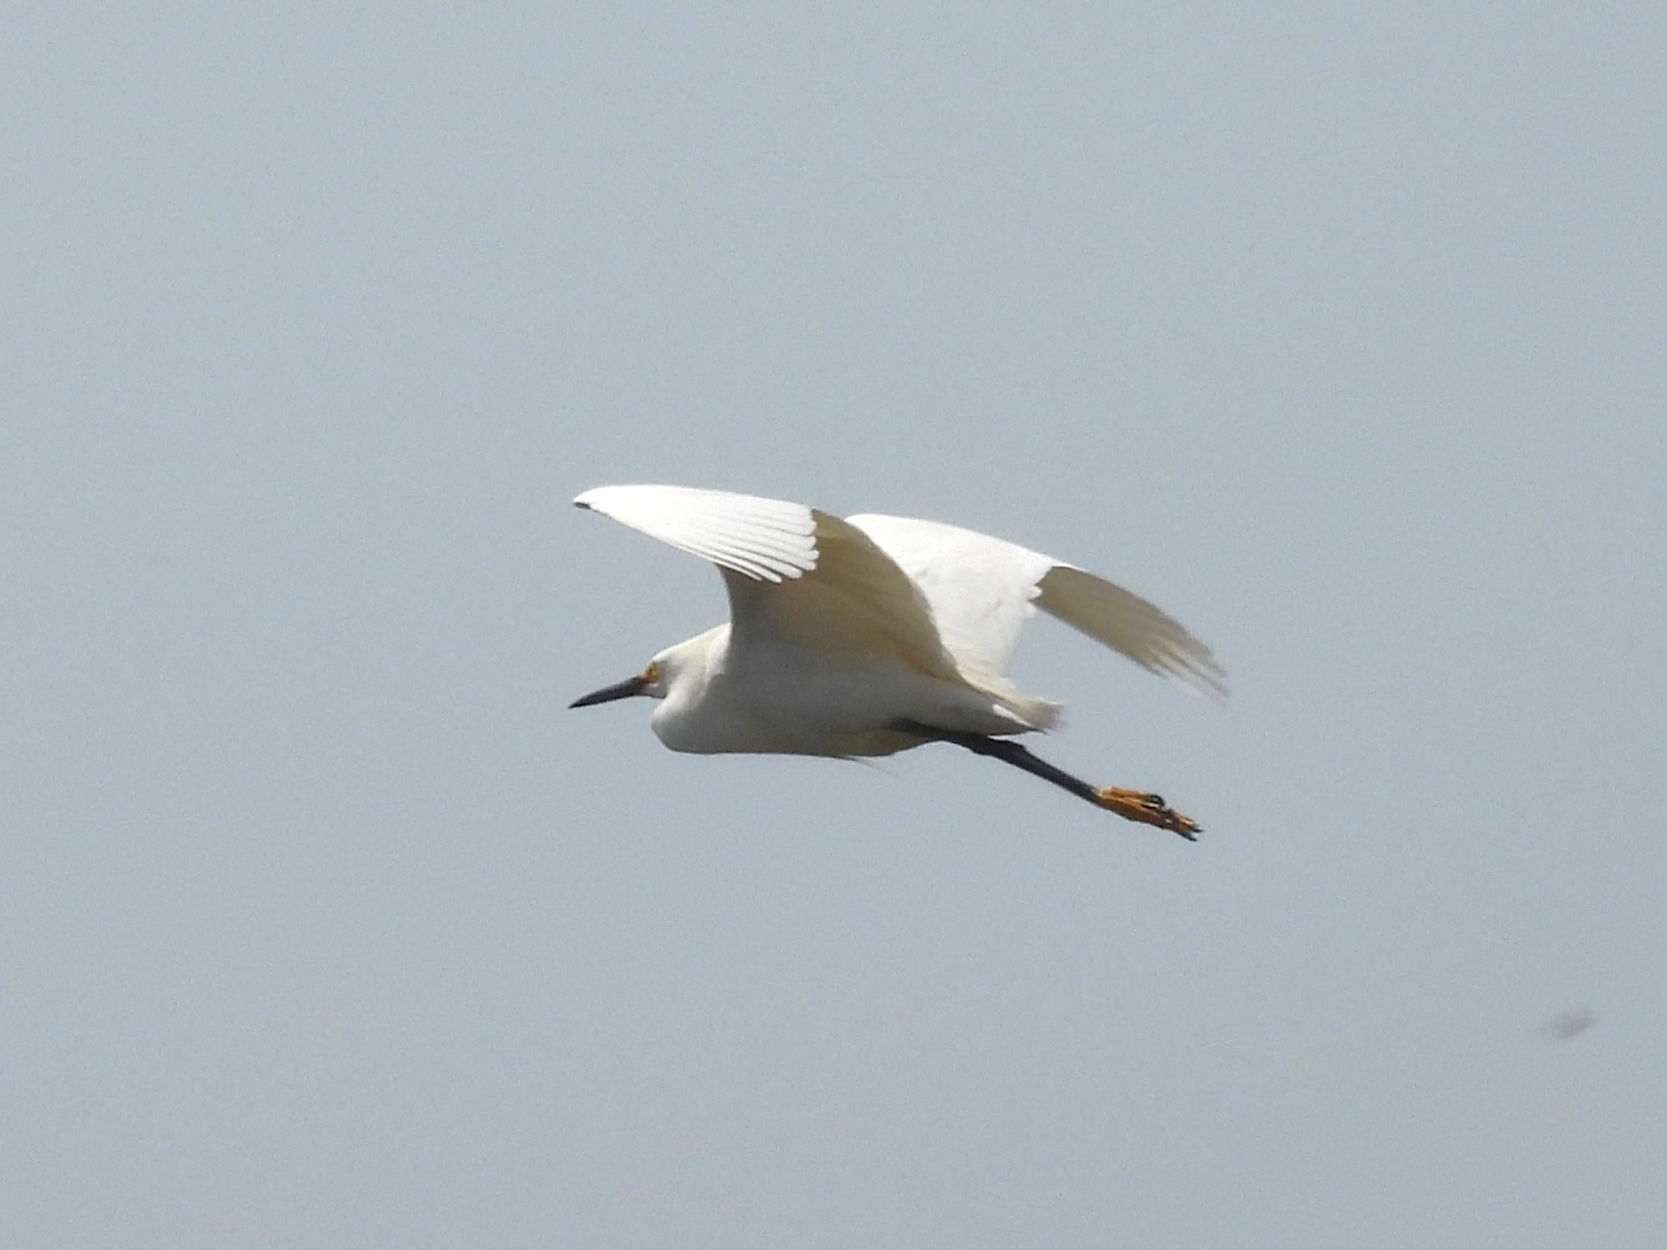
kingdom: Animalia
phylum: Chordata
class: Aves
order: Pelecaniformes
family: Ardeidae
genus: Egretta
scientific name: Egretta thula
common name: Snowy egret
